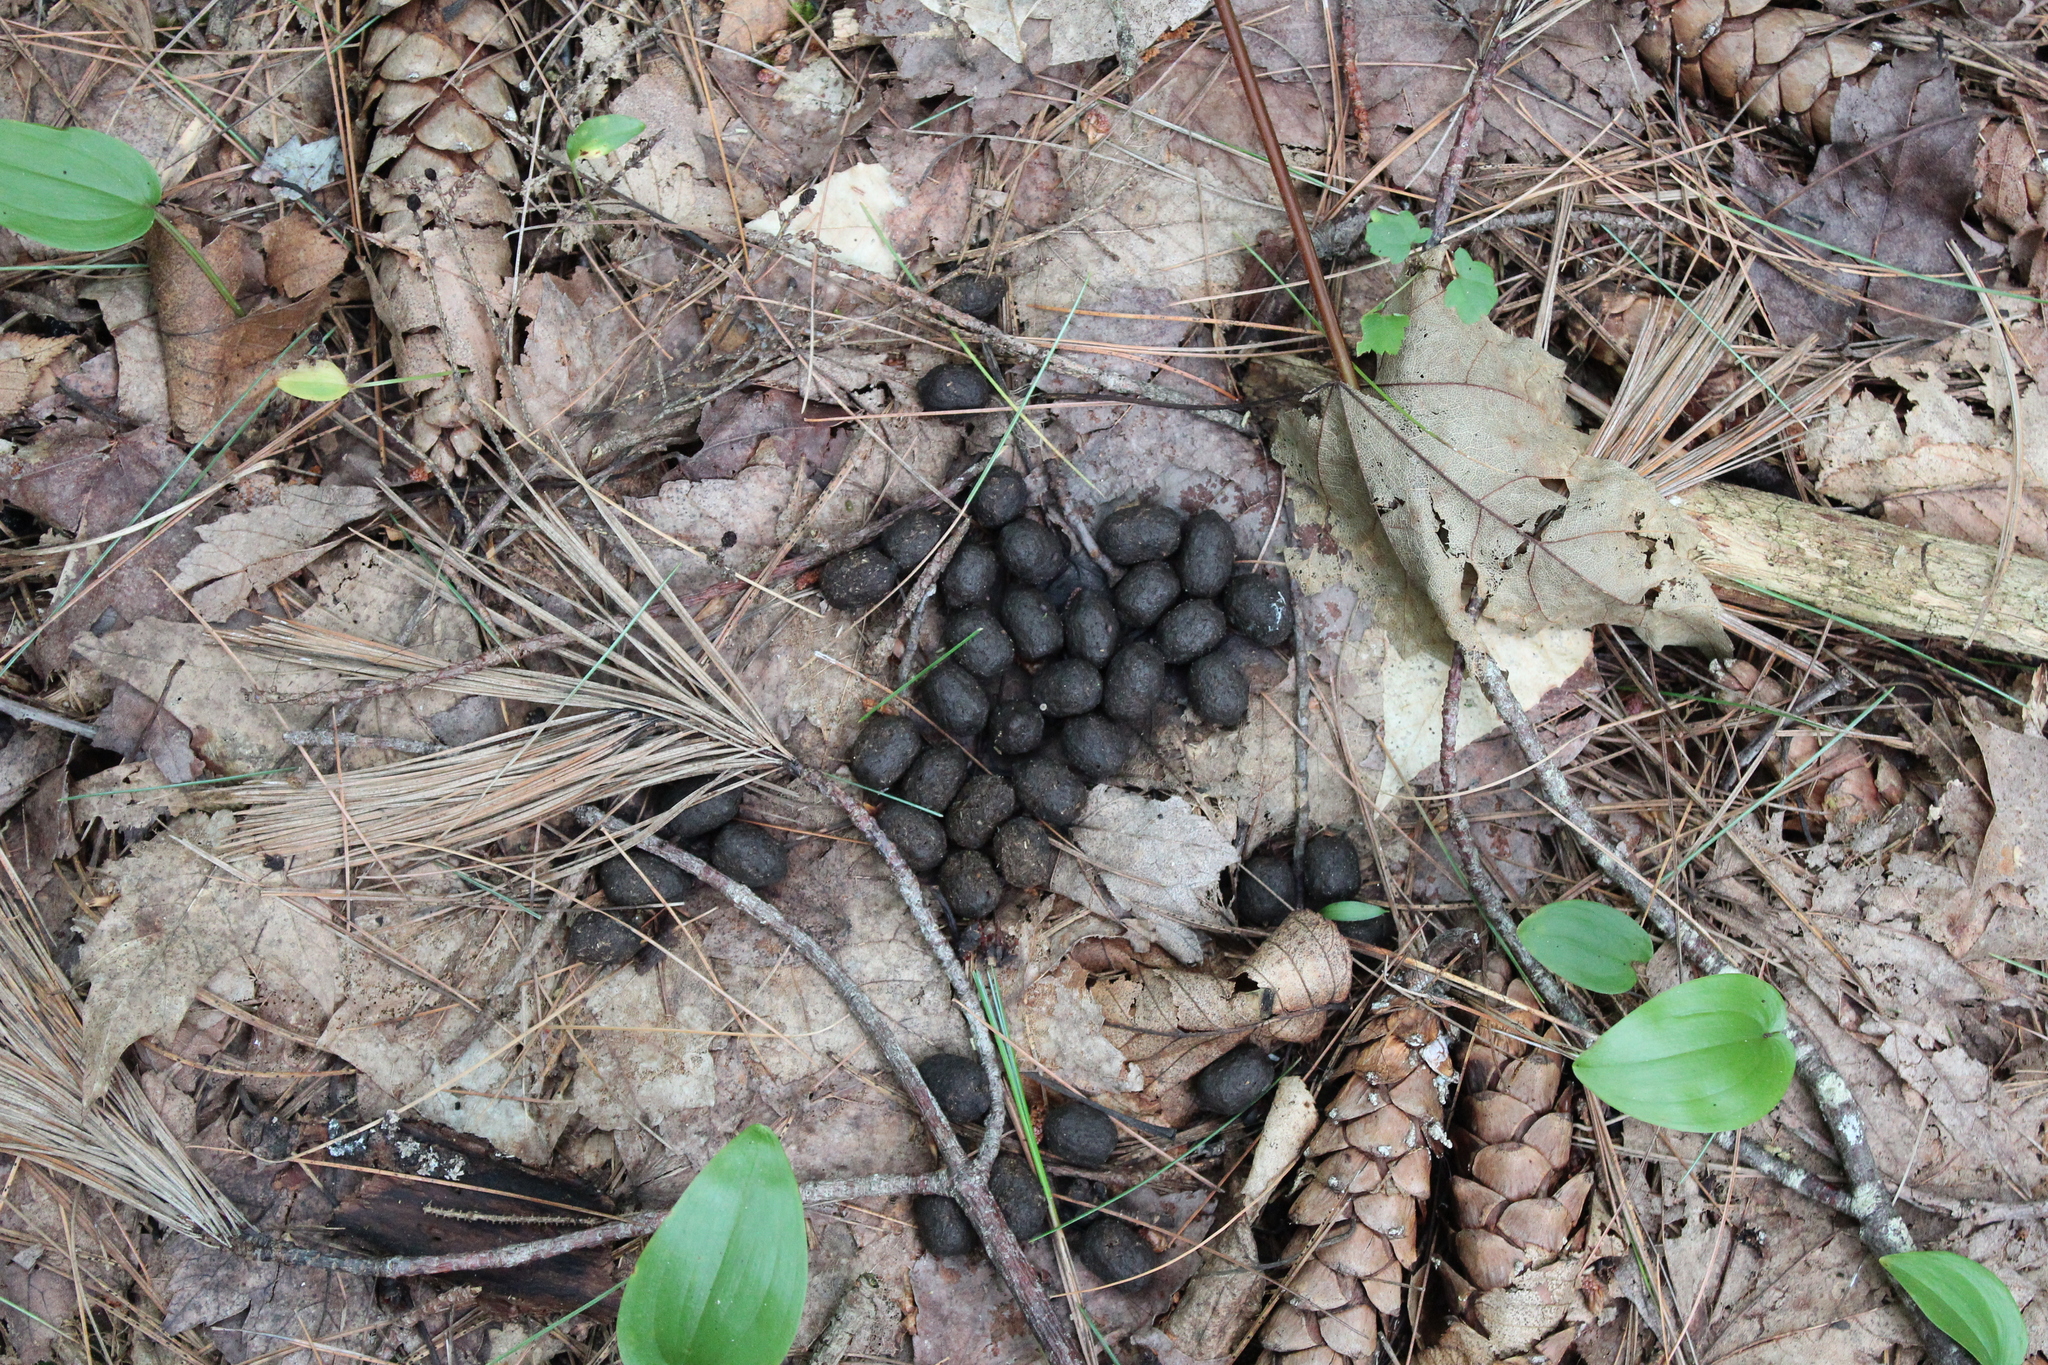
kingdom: Animalia
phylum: Chordata
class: Mammalia
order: Artiodactyla
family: Cervidae
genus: Odocoileus
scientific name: Odocoileus virginianus
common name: White-tailed deer
